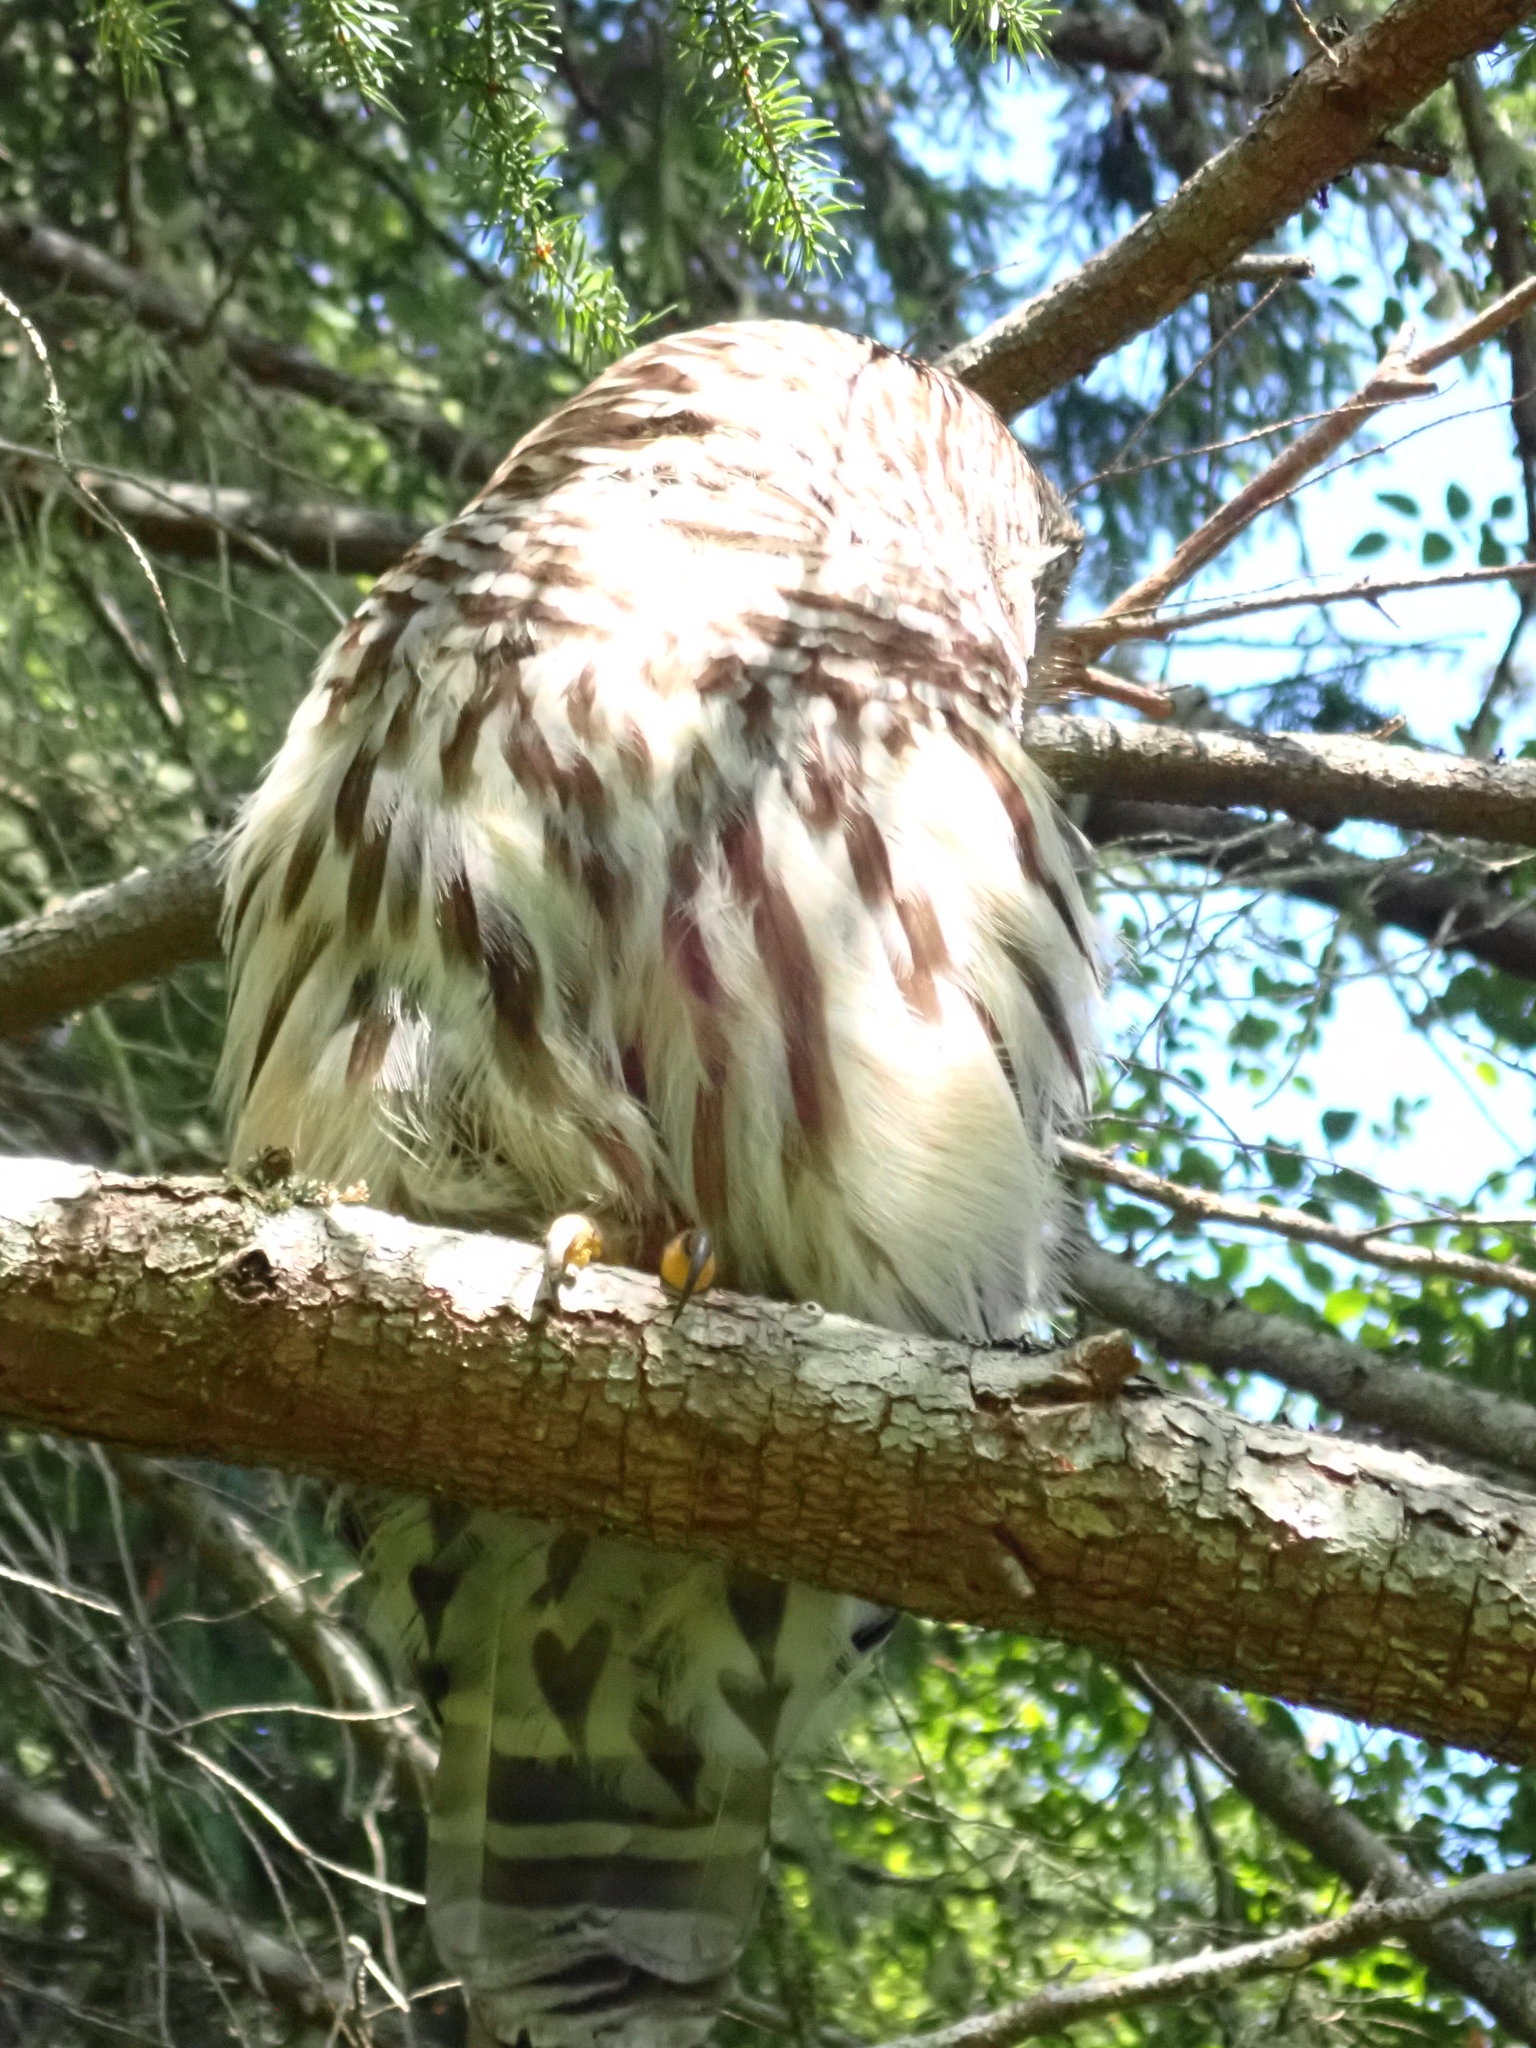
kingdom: Animalia
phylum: Chordata
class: Aves
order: Strigiformes
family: Strigidae
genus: Strix
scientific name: Strix varia
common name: Barred owl
